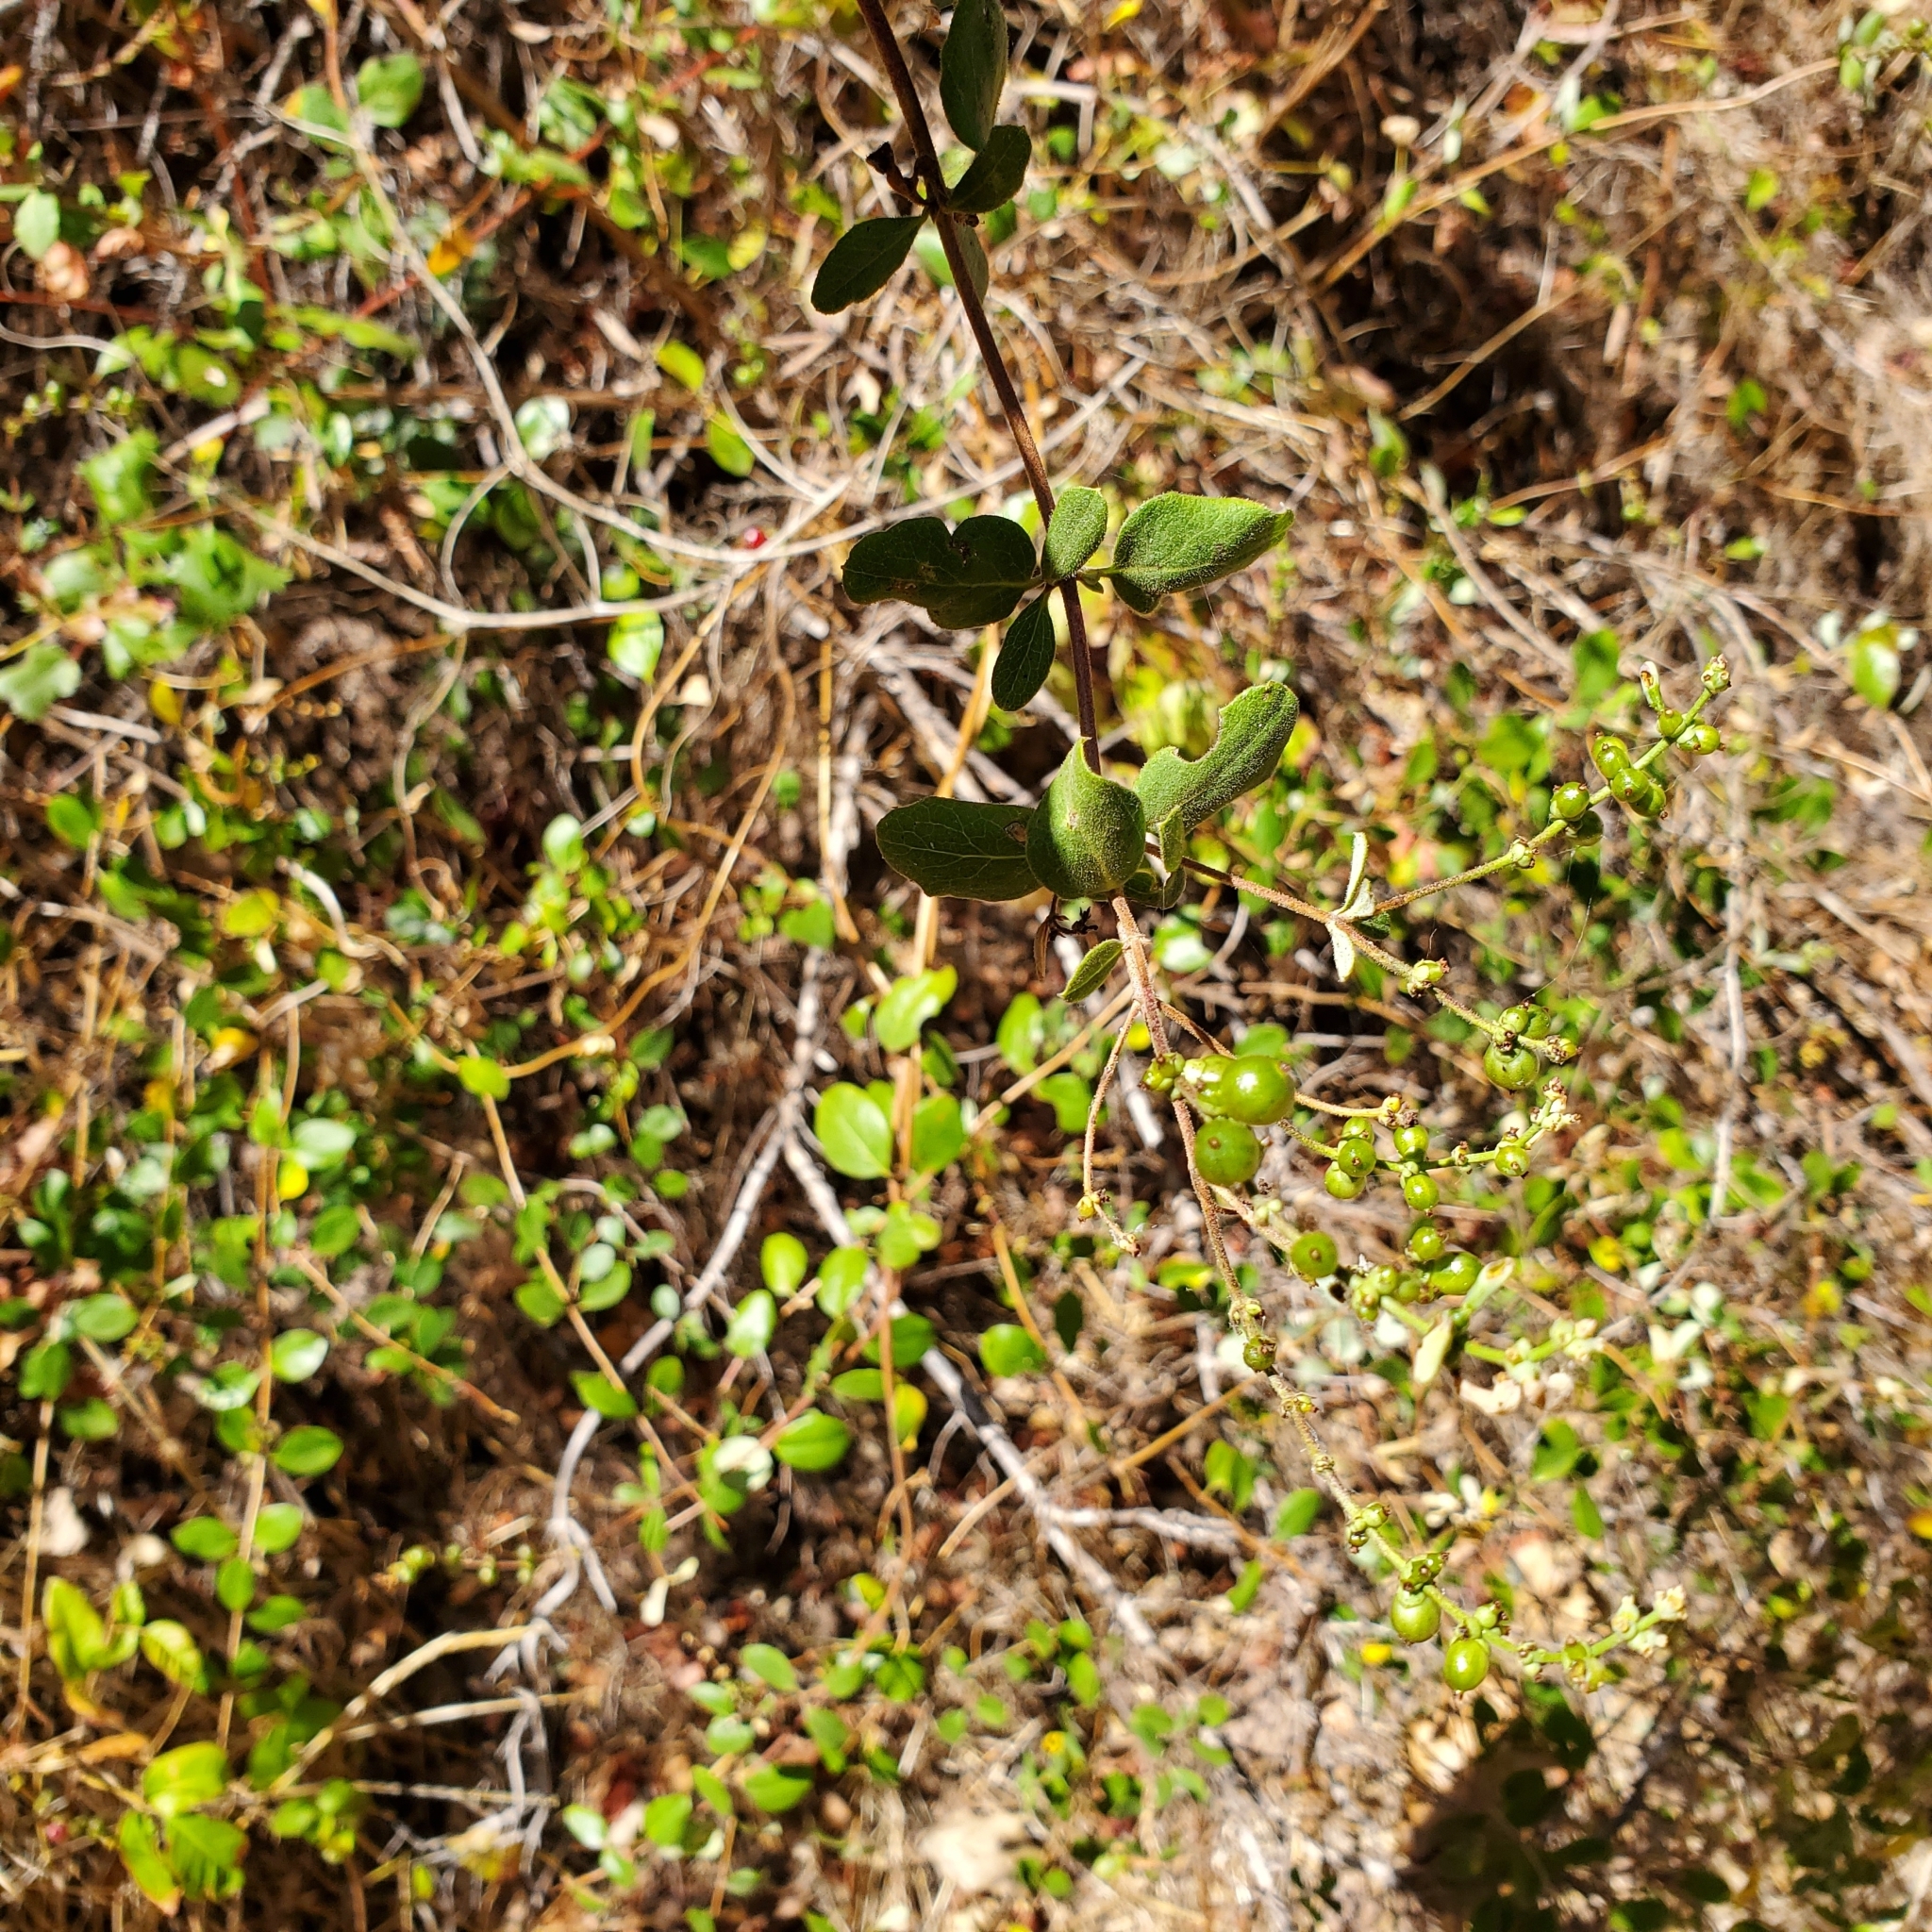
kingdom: Plantae
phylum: Tracheophyta
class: Magnoliopsida
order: Dipsacales
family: Caprifoliaceae
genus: Lonicera
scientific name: Lonicera subspicata
